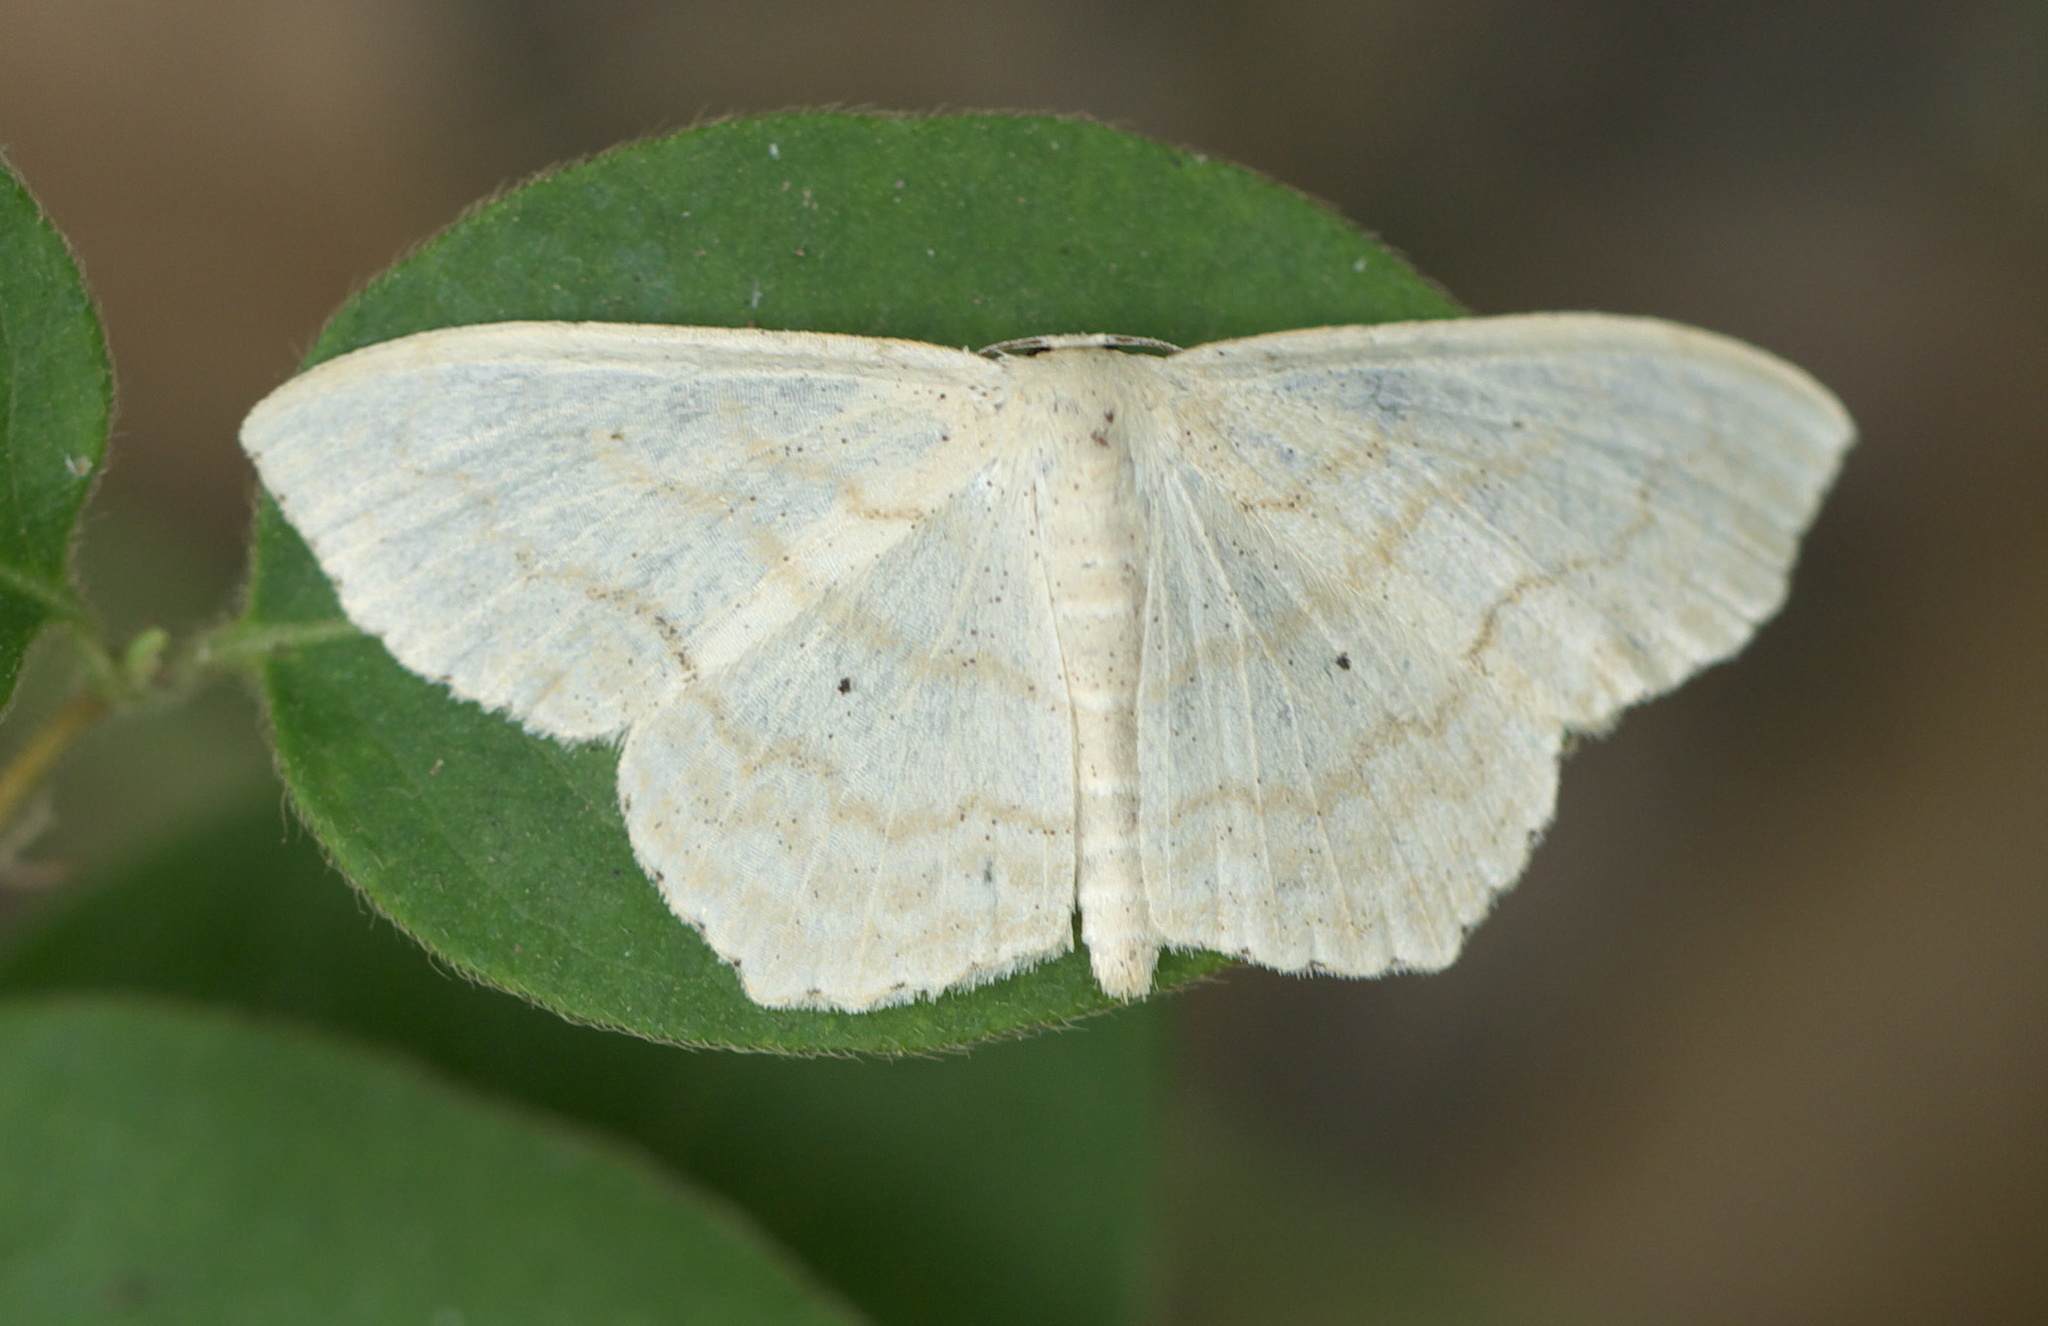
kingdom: Animalia
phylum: Arthropoda
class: Insecta
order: Lepidoptera
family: Geometridae
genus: Scopula
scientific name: Scopula limboundata
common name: Large lace border
